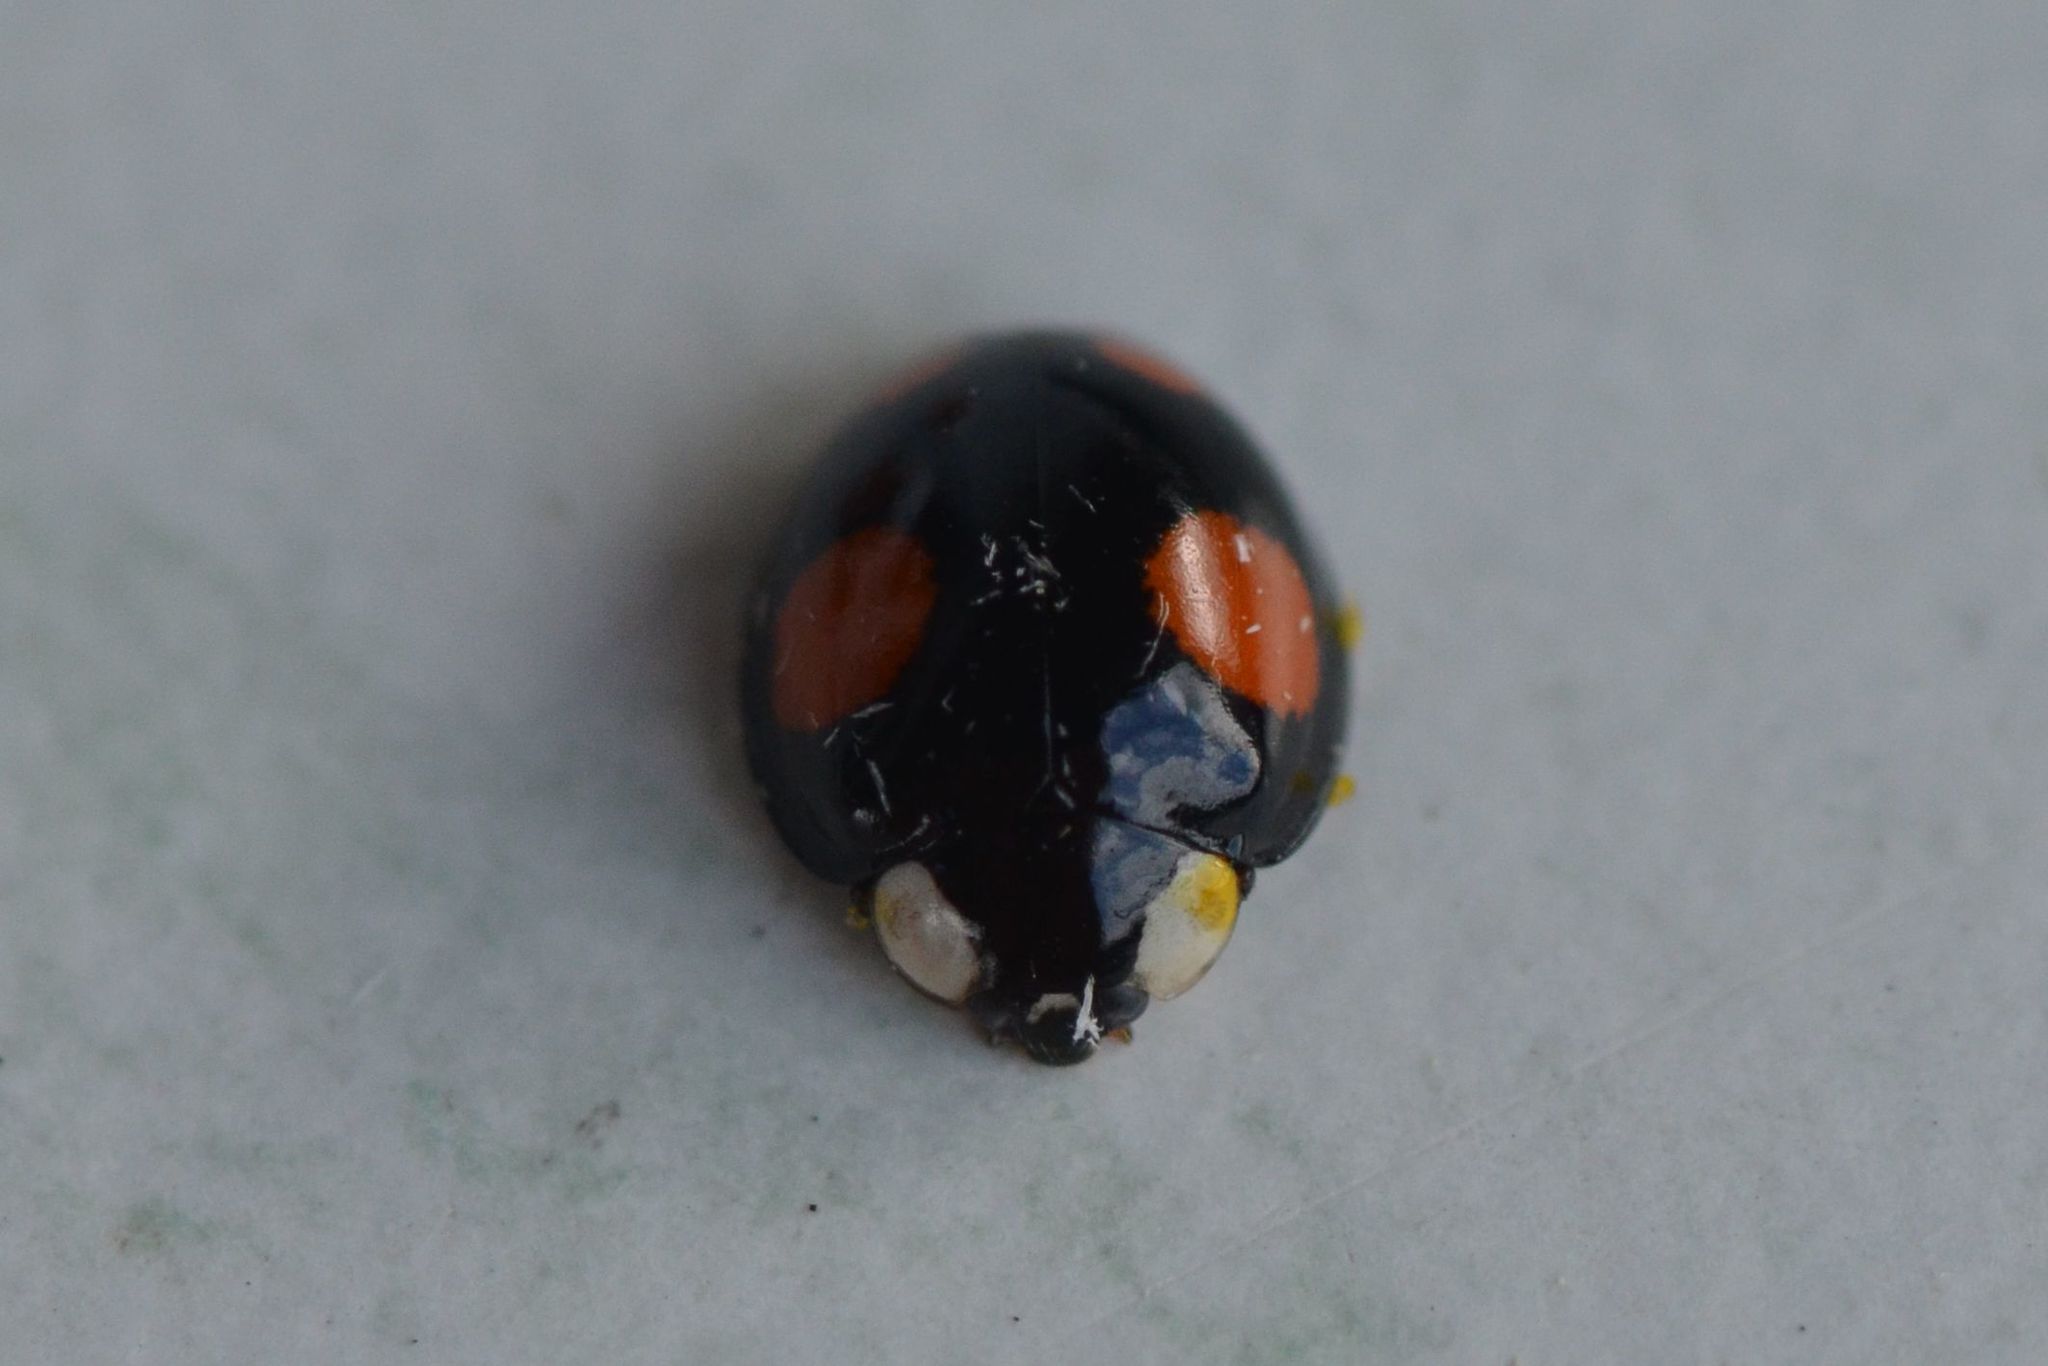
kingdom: Animalia
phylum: Arthropoda
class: Insecta
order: Coleoptera
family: Coccinellidae
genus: Harmonia
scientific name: Harmonia axyridis
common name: Harlequin ladybird
